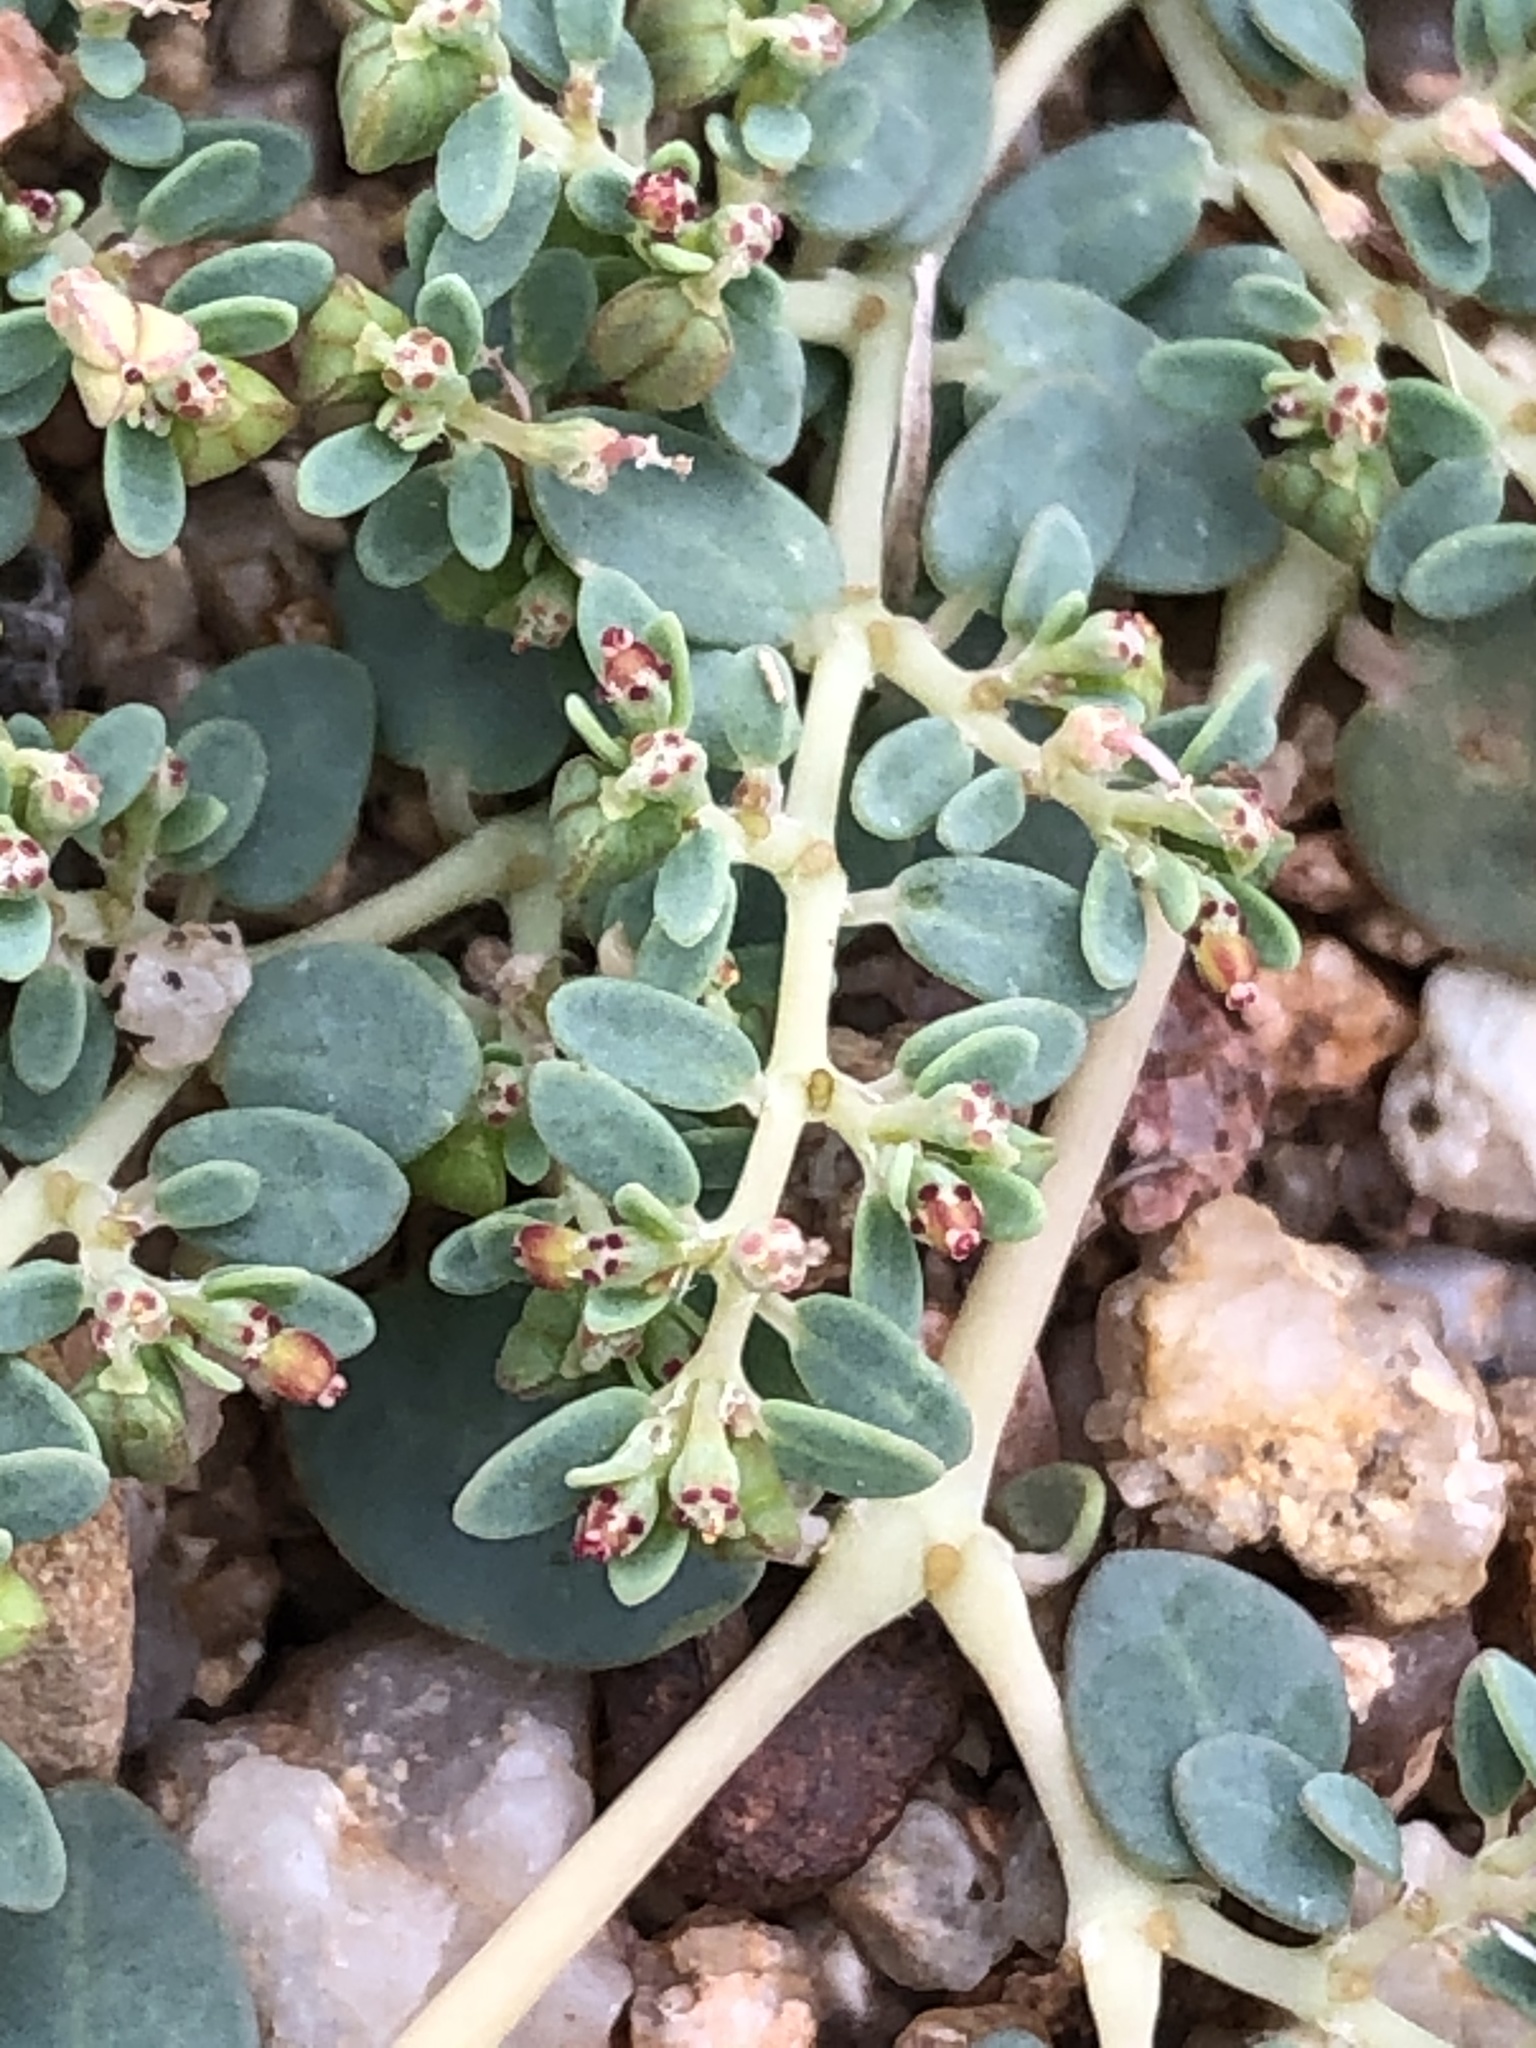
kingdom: Plantae
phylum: Tracheophyta
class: Magnoliopsida
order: Malpighiales
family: Euphorbiaceae
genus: Euphorbia
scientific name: Euphorbia micromera
